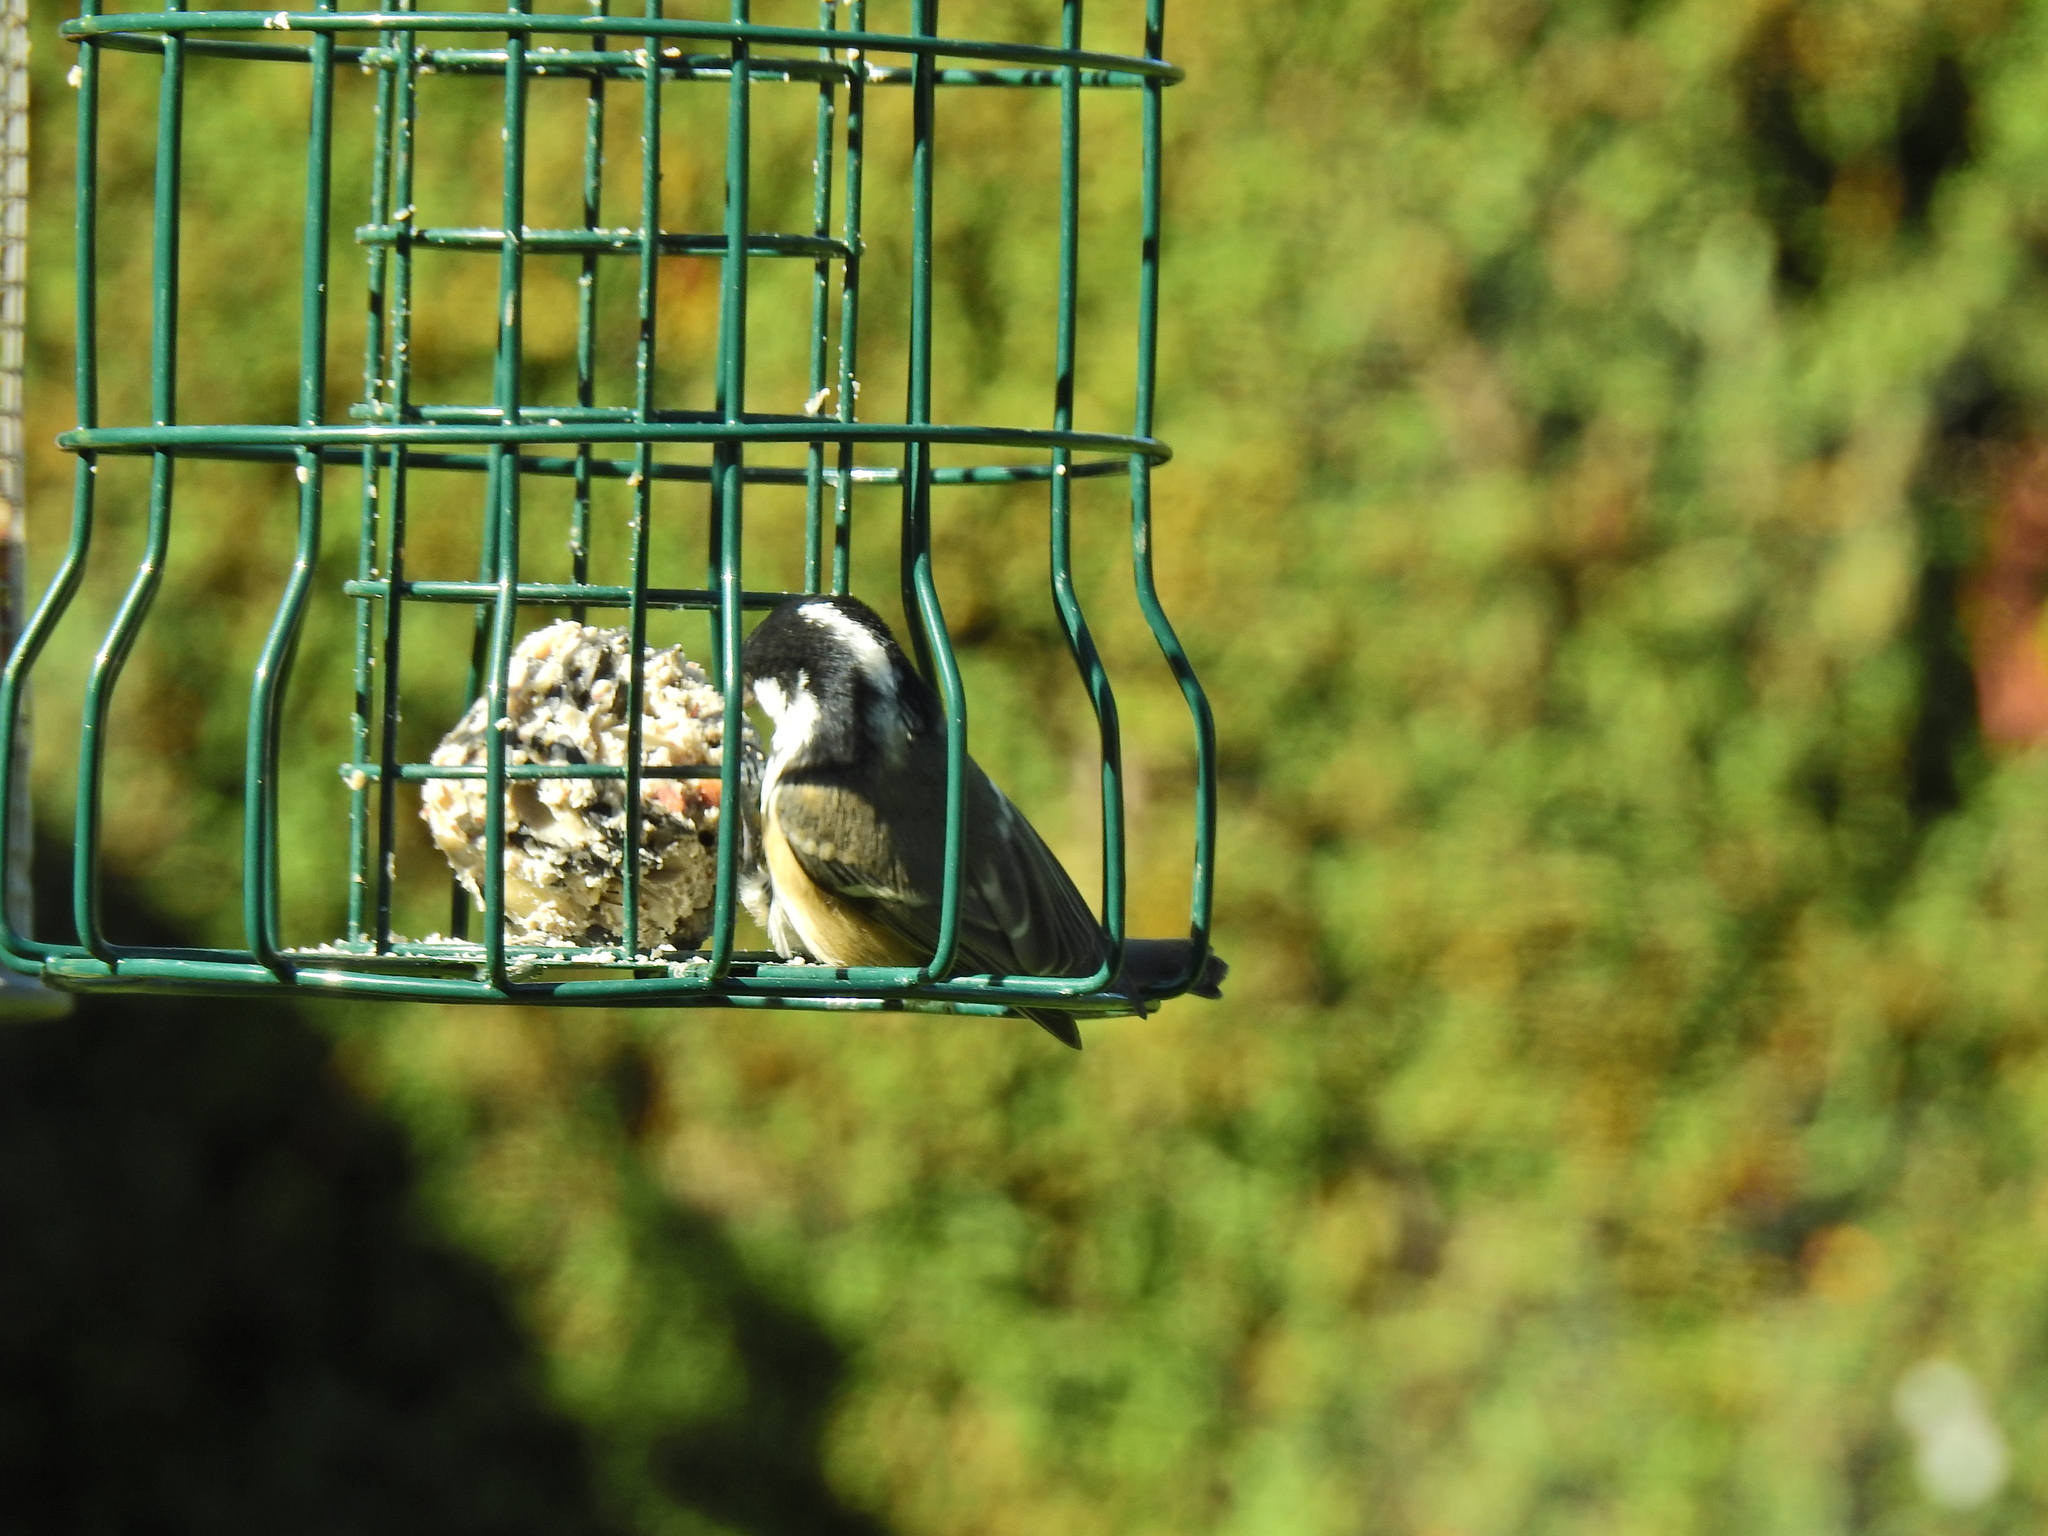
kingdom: Animalia
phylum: Chordata
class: Aves
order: Passeriformes
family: Paridae
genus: Periparus
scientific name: Periparus ater
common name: Coal tit
